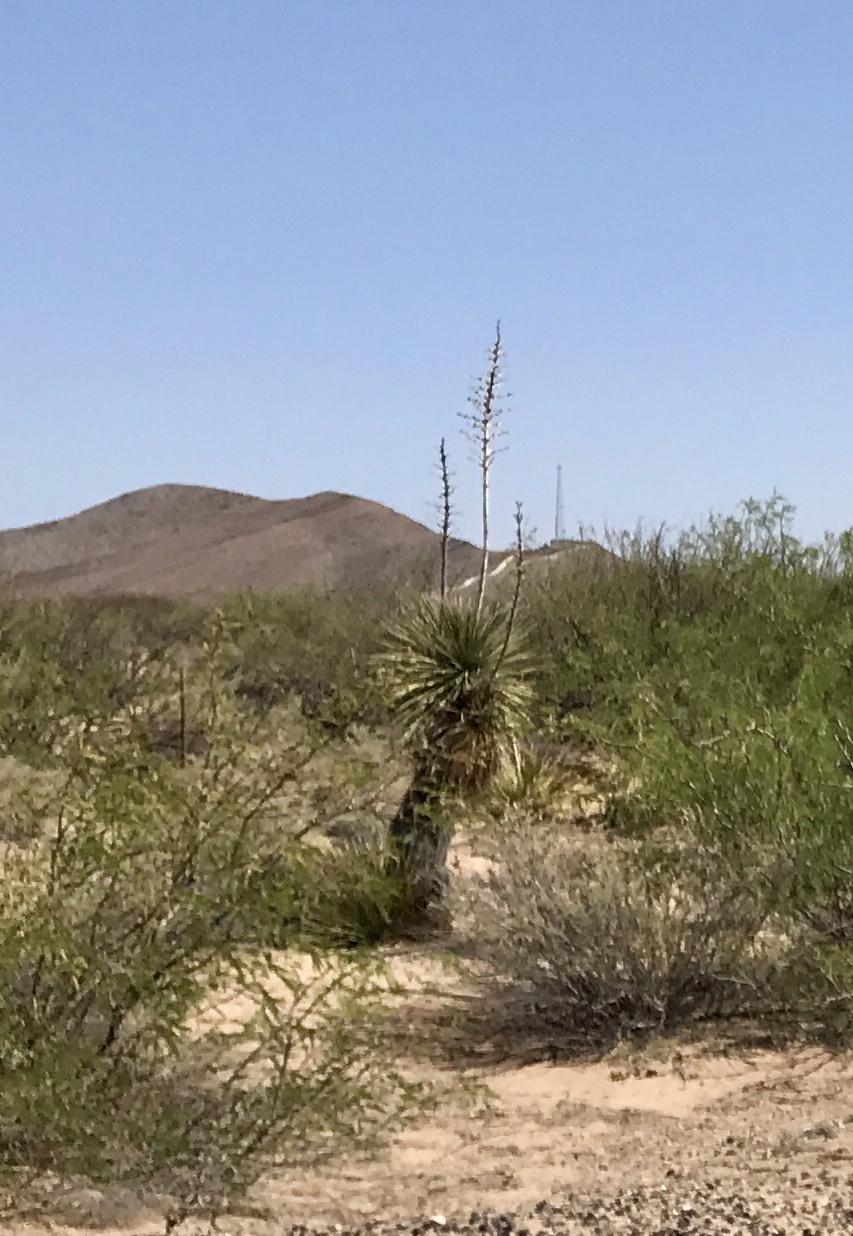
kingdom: Plantae
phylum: Tracheophyta
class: Liliopsida
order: Asparagales
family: Asparagaceae
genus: Yucca
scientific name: Yucca elata
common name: Palmella
